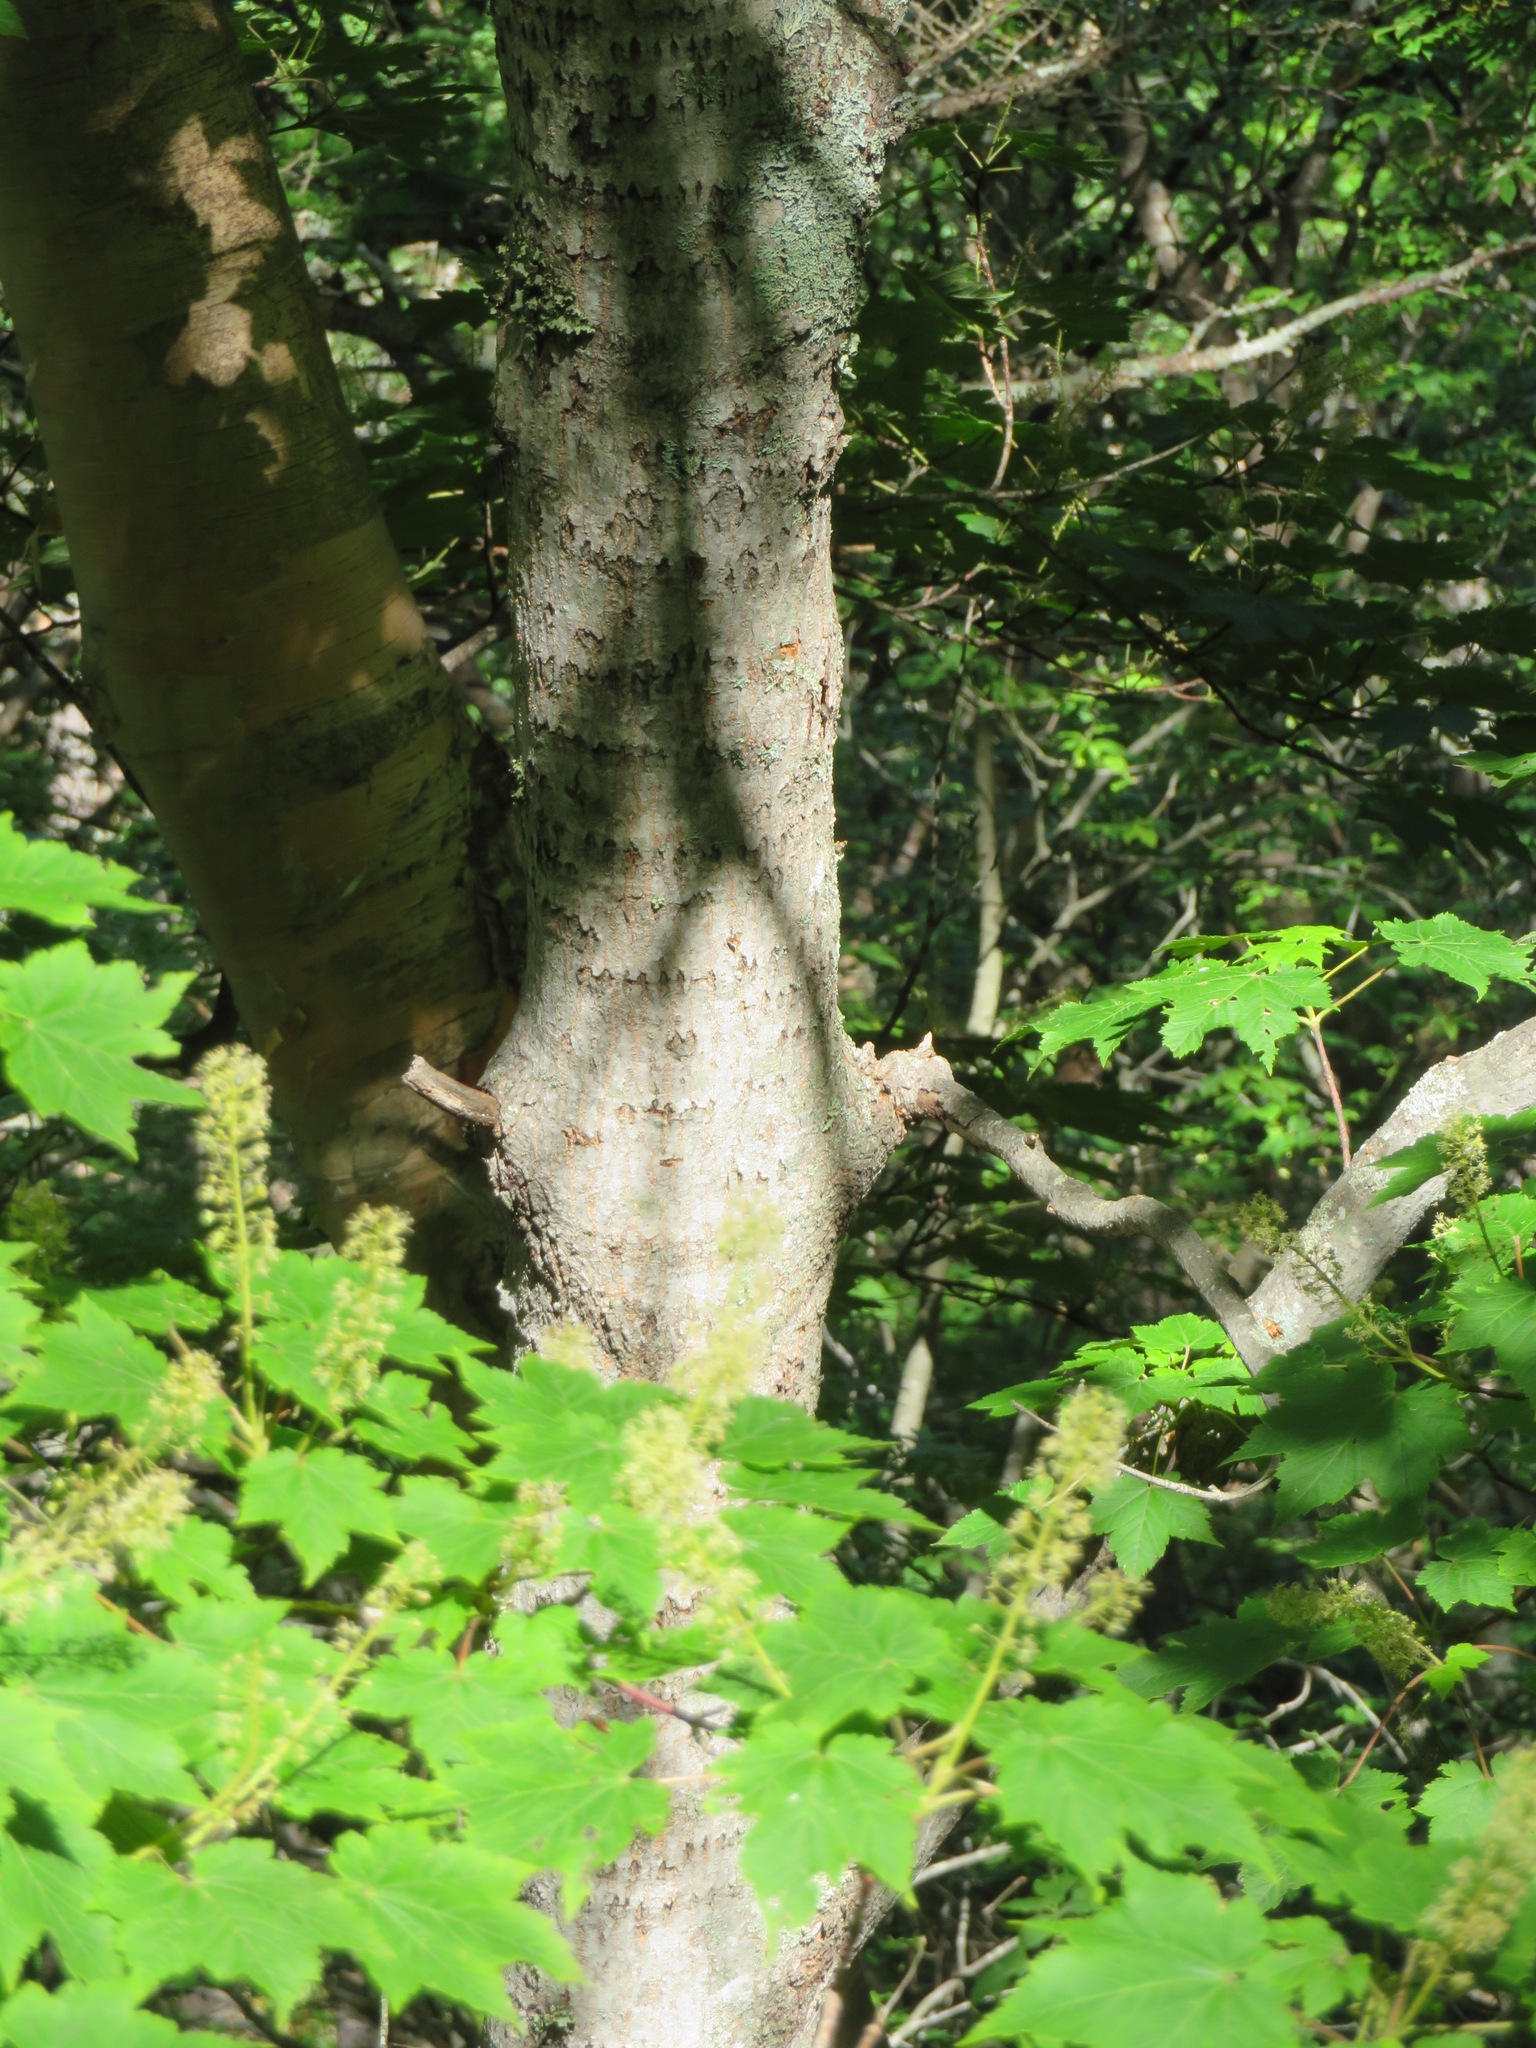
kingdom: Plantae
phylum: Tracheophyta
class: Magnoliopsida
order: Sapindales
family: Sapindaceae
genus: Acer
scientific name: Acer ukurunduense
